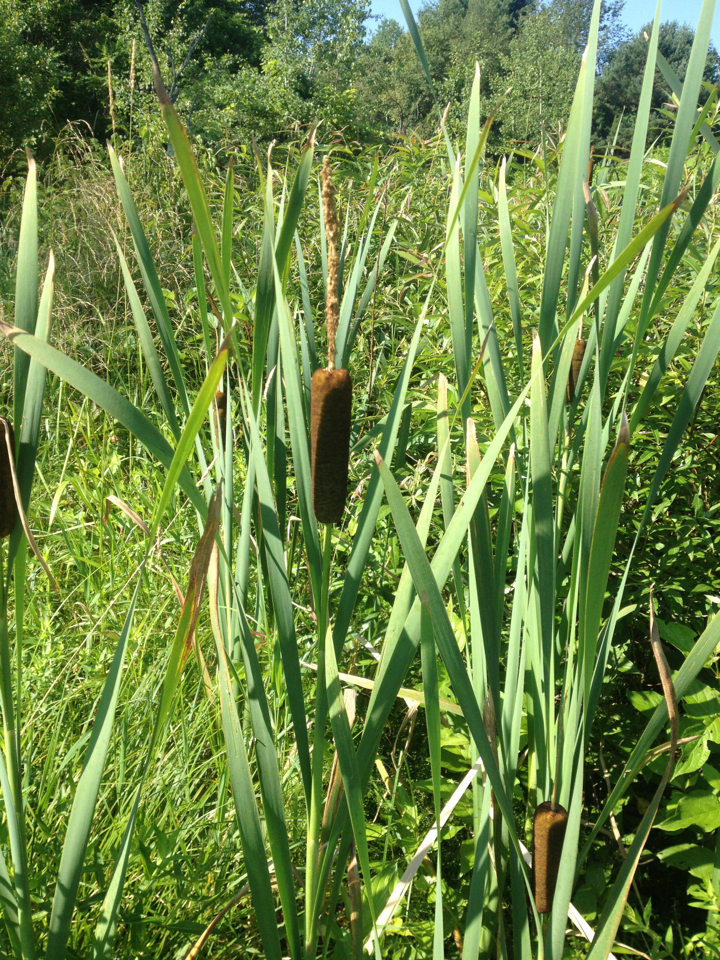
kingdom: Plantae
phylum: Tracheophyta
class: Liliopsida
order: Poales
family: Typhaceae
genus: Typha
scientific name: Typha latifolia
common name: Broadleaf cattail
